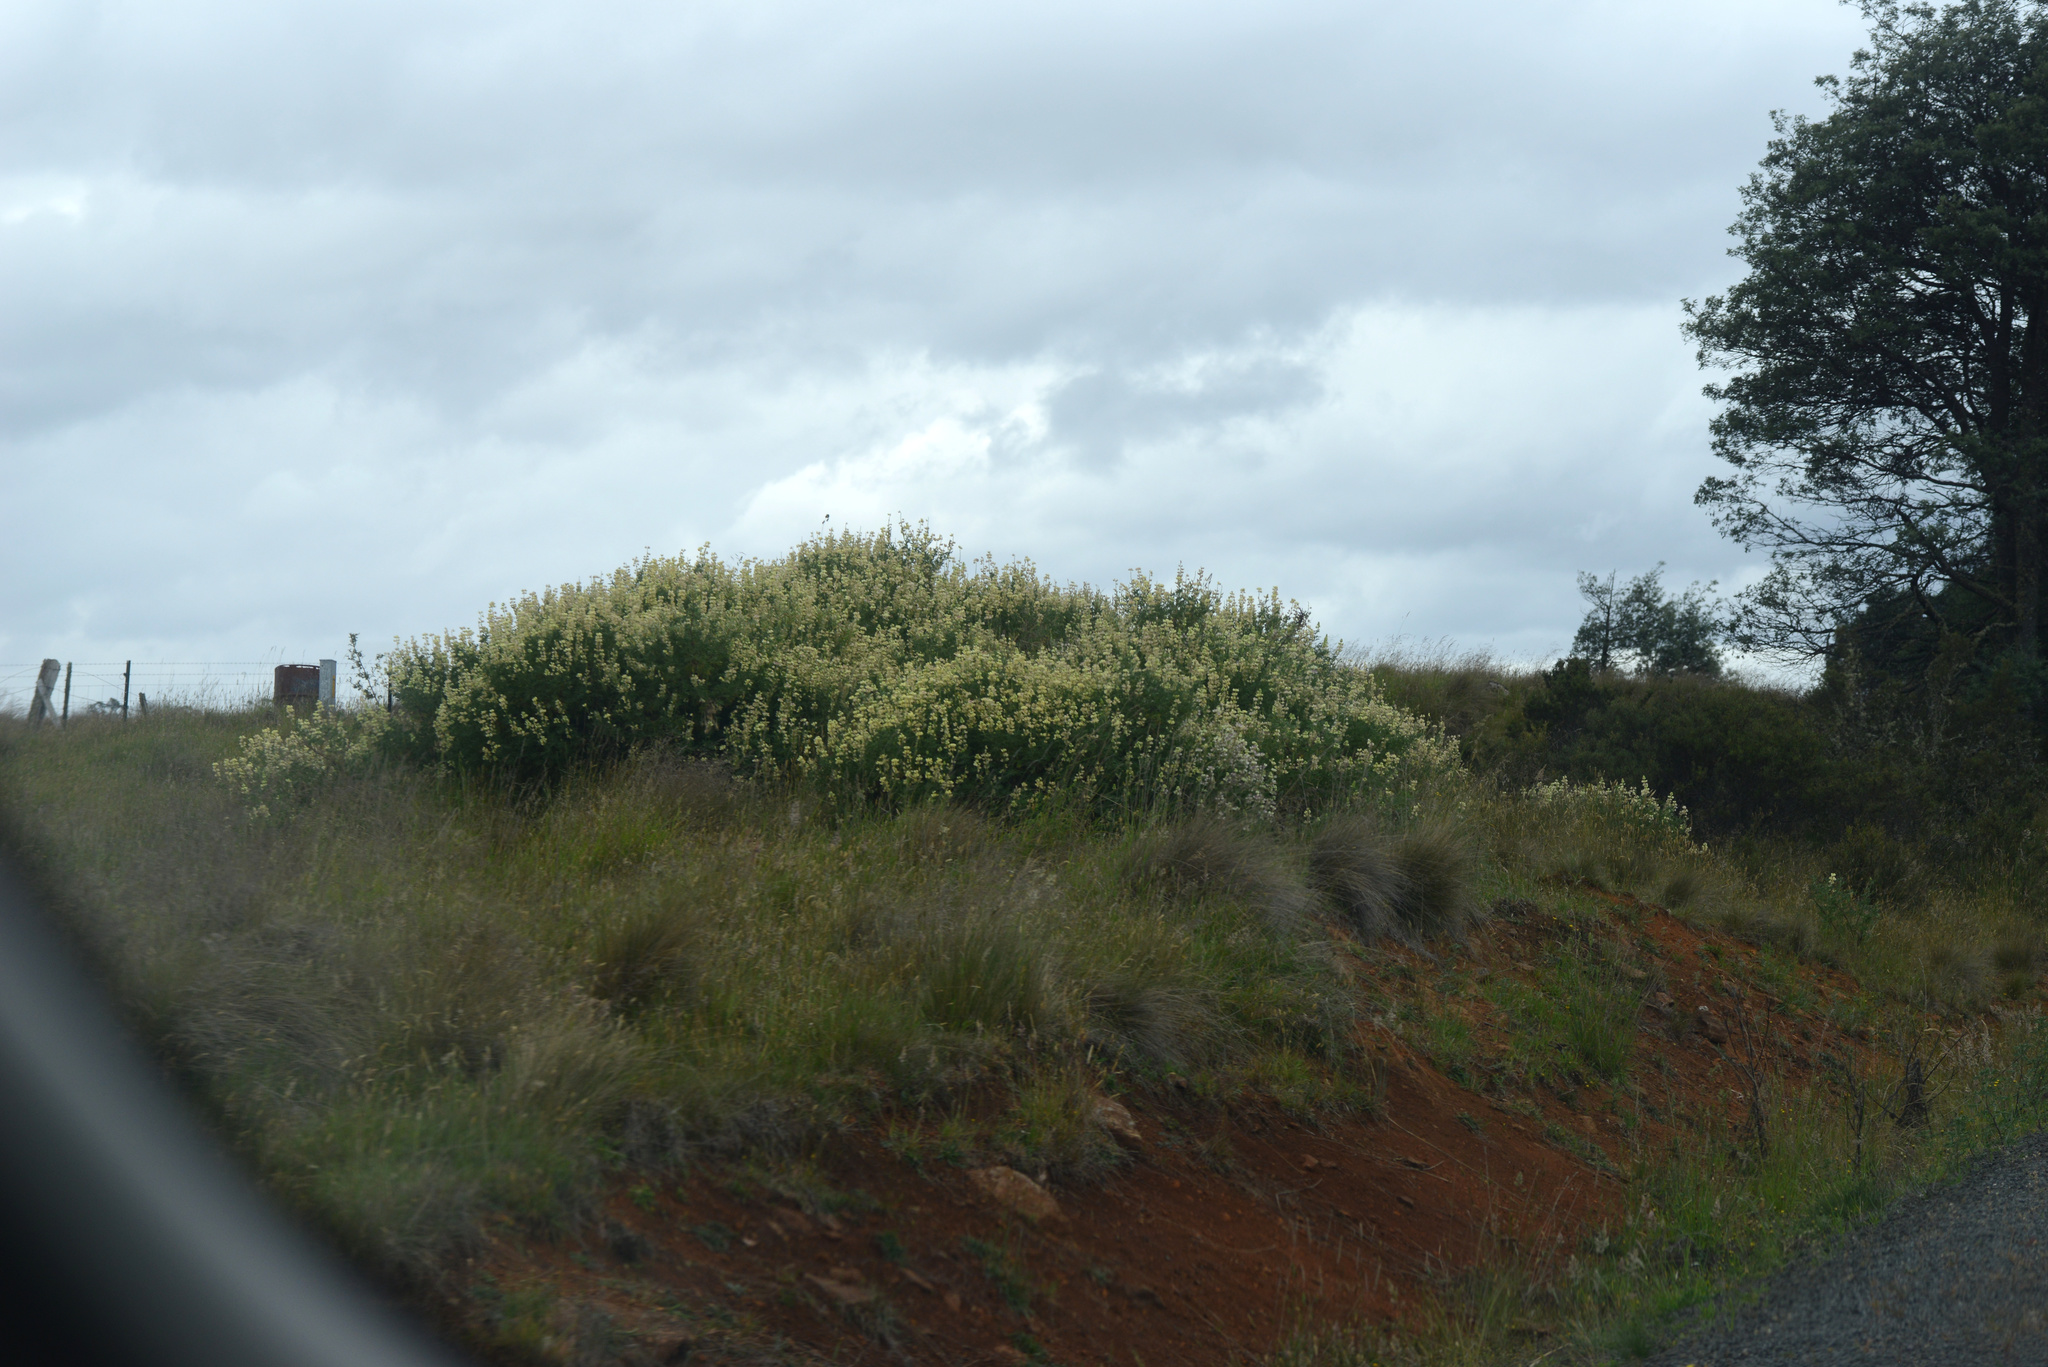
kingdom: Plantae
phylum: Tracheophyta
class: Magnoliopsida
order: Fabales
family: Fabaceae
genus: Lupinus
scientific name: Lupinus arboreus
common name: Yellow bush lupine
